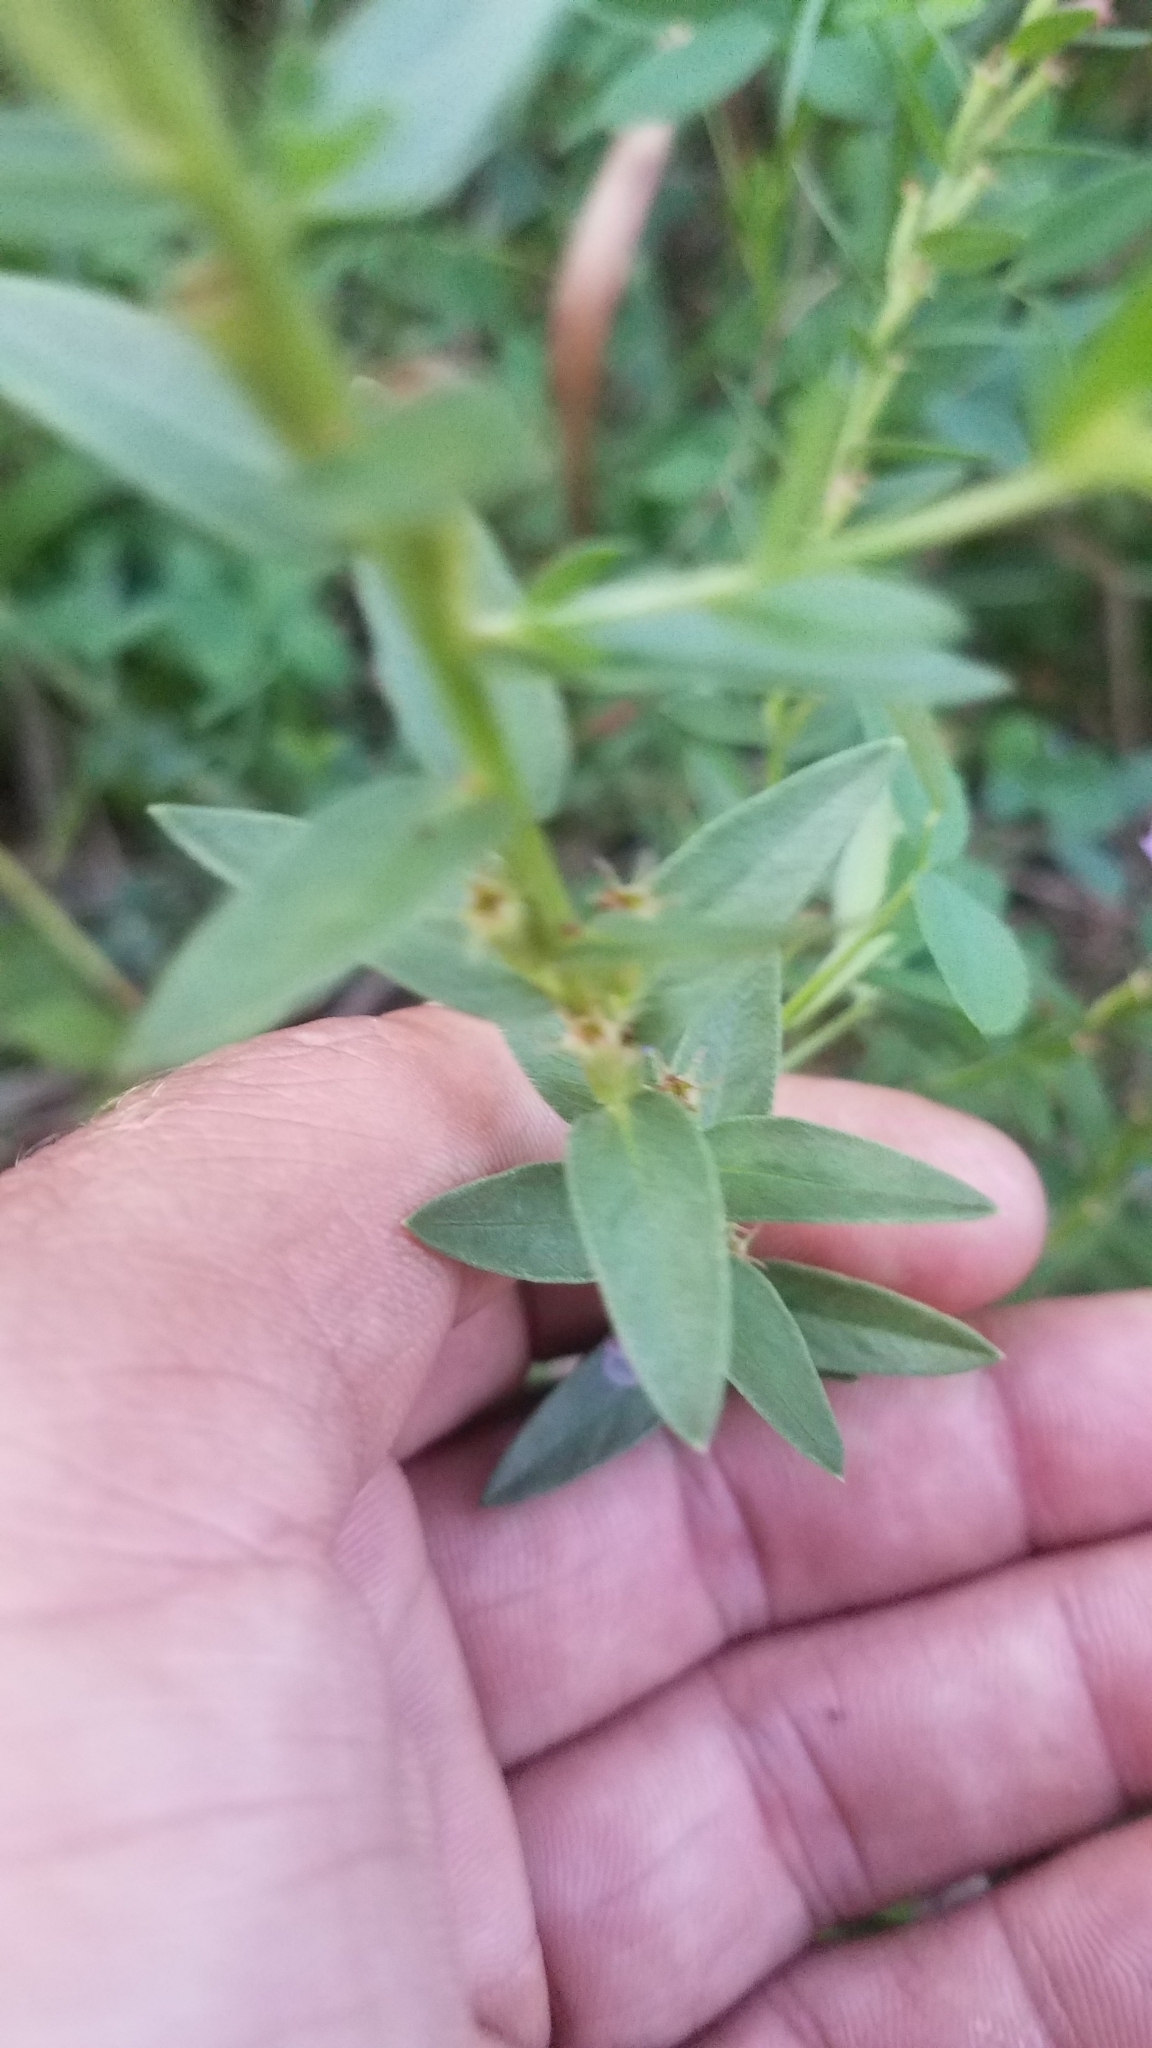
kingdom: Plantae
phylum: Tracheophyta
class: Magnoliopsida
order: Myrtales
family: Lythraceae
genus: Lythrum
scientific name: Lythrum alatum
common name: Winged loosestrife
